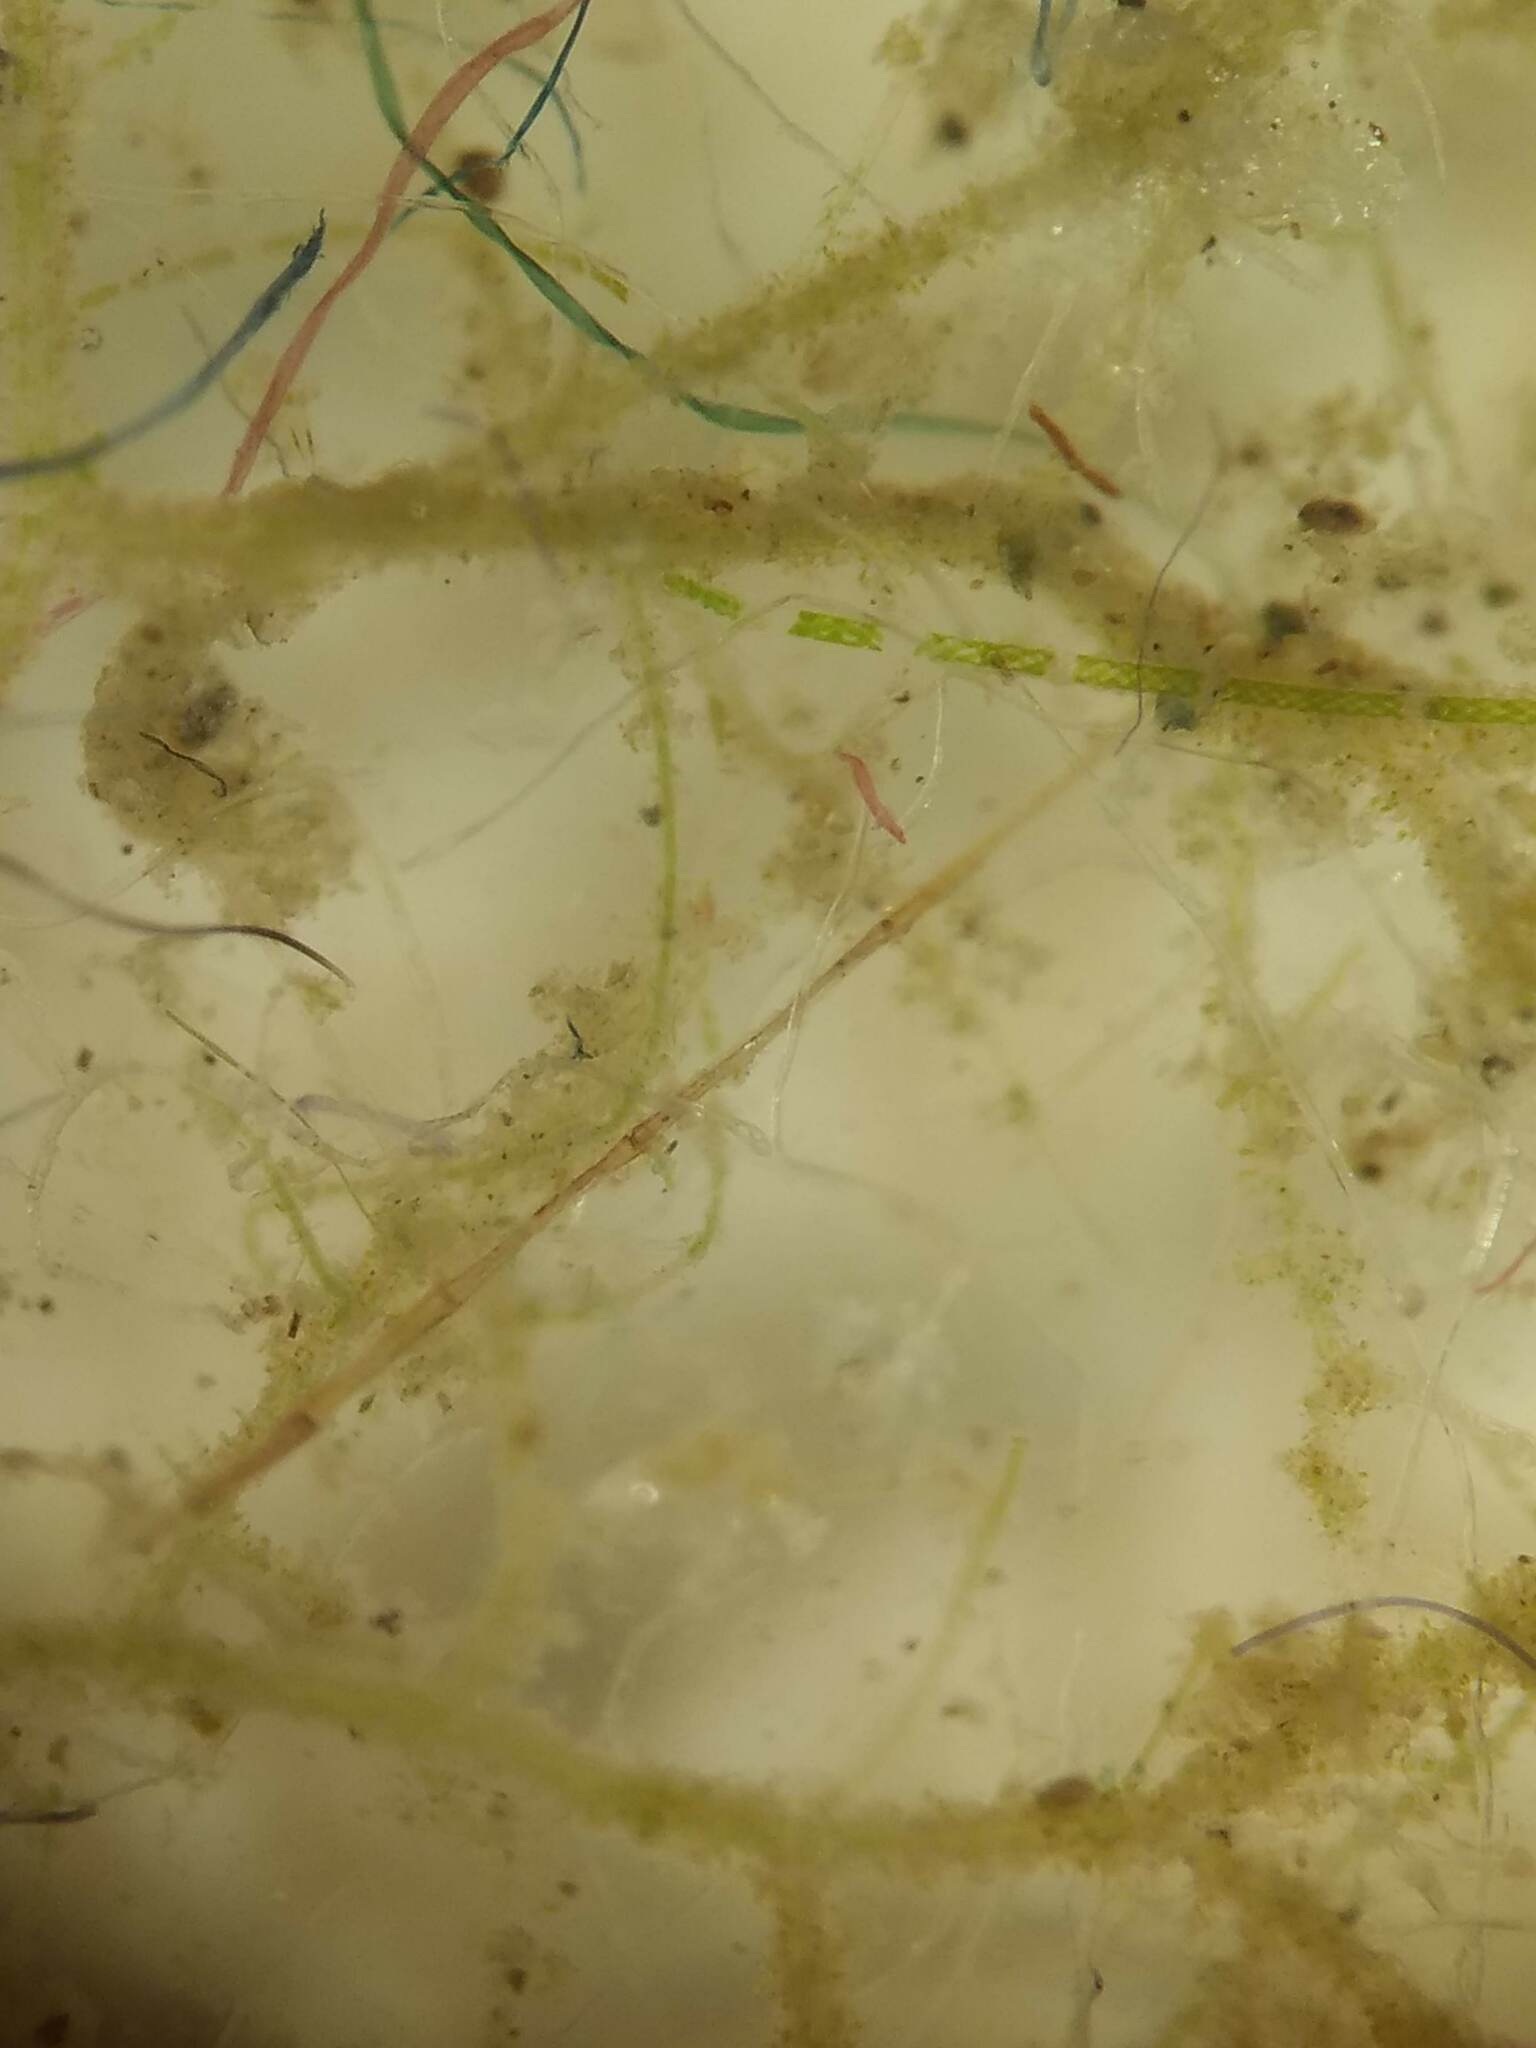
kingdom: Plantae
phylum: Charophyta
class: Zygnematophyceae
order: Zygnematales
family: Zygnemataceae
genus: Spirogyra
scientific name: Spirogyra
